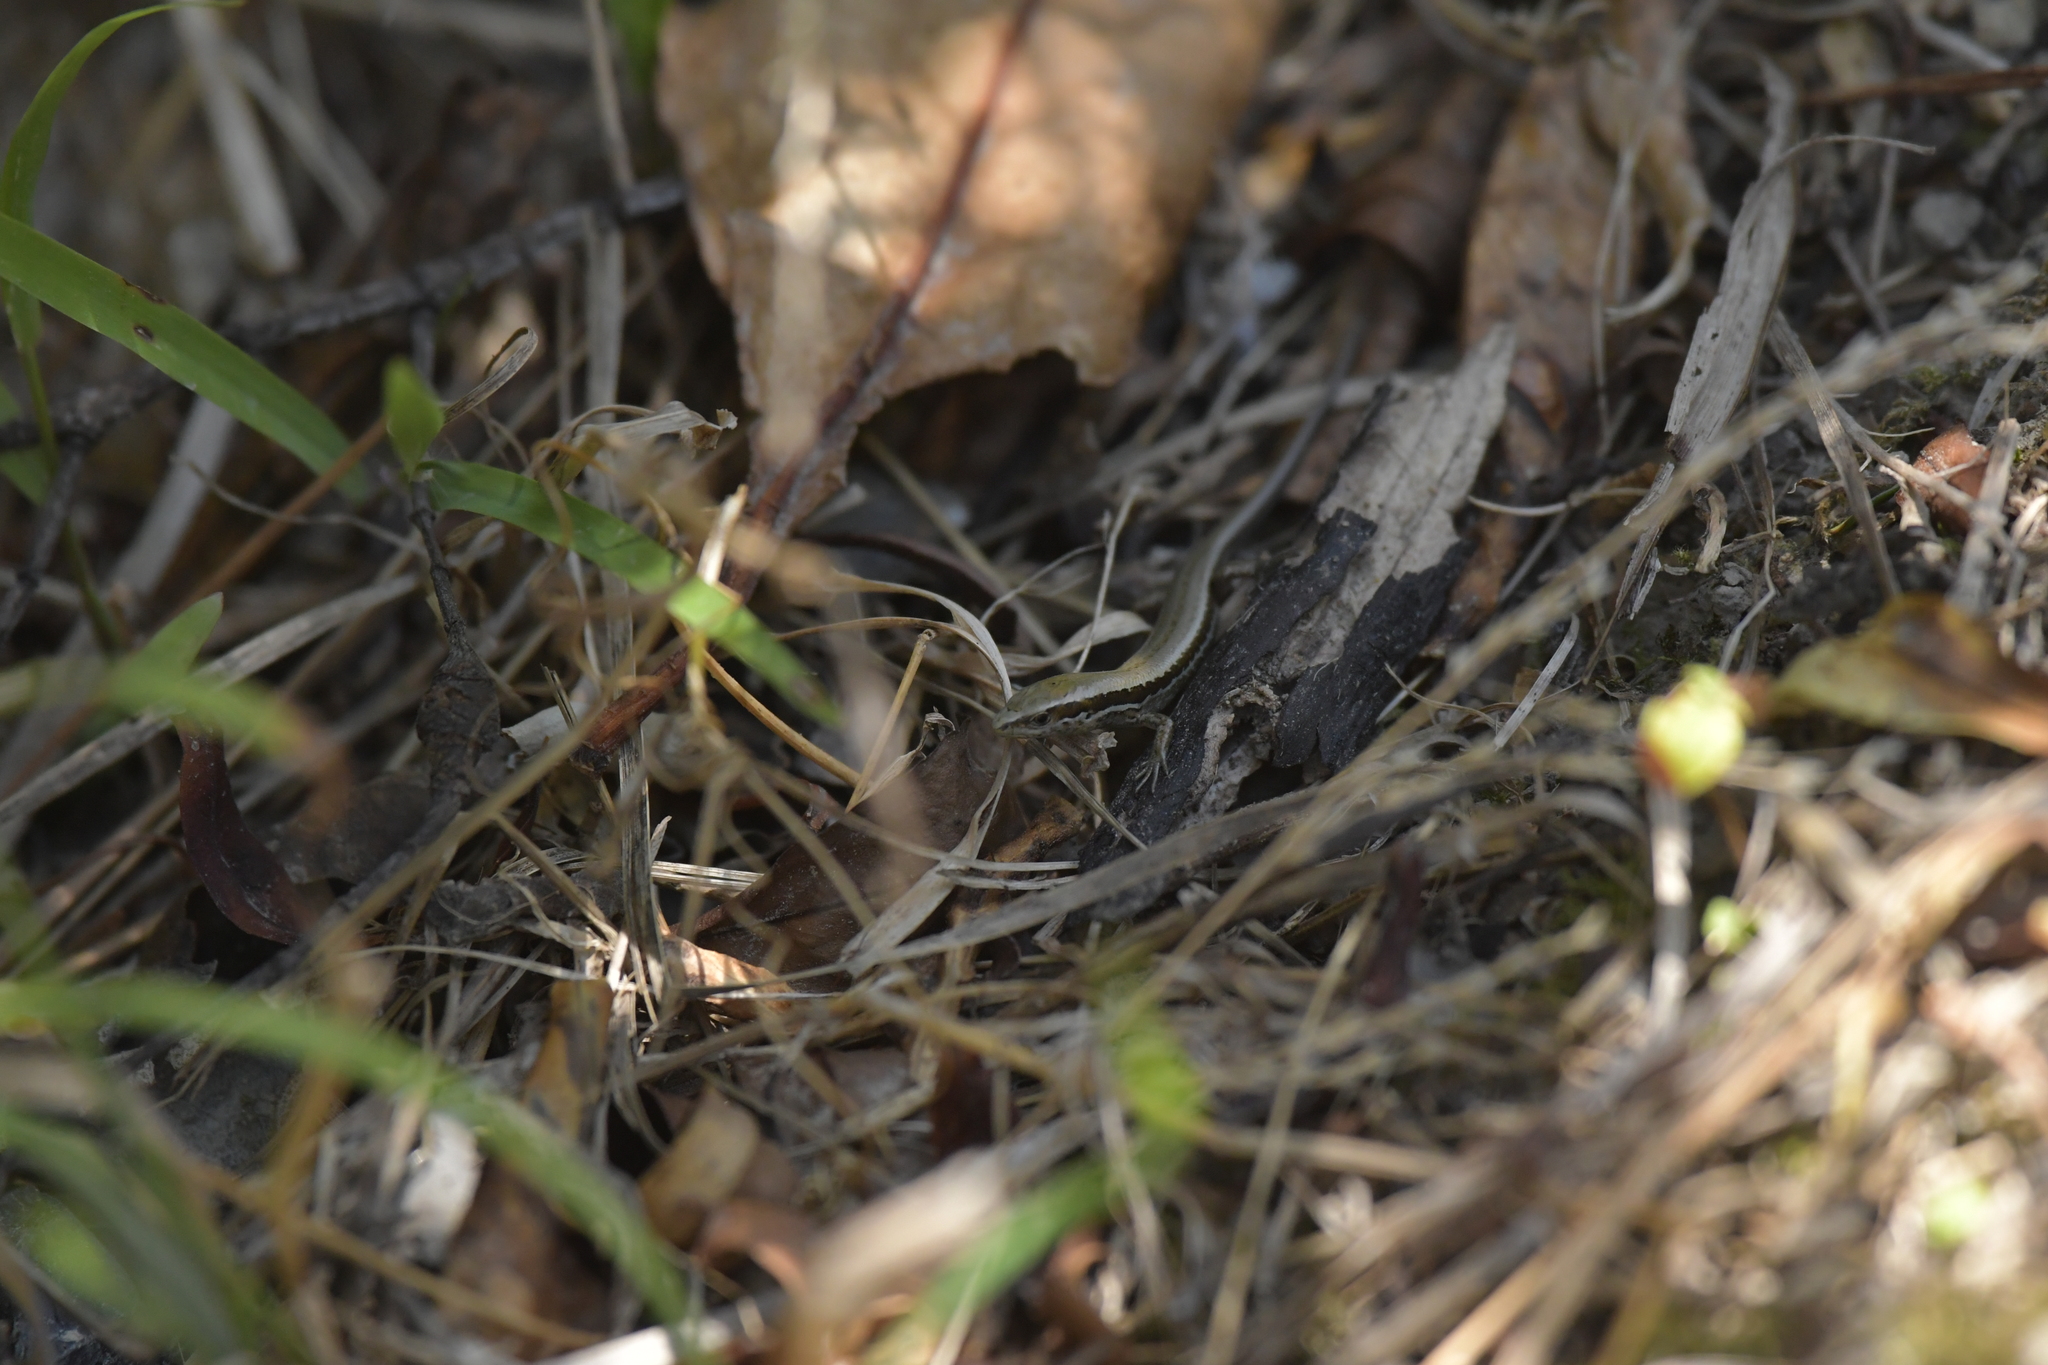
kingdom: Animalia
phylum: Chordata
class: Squamata
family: Scincidae
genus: Oligosoma
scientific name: Oligosoma polychroma
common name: Common new zealand skink
